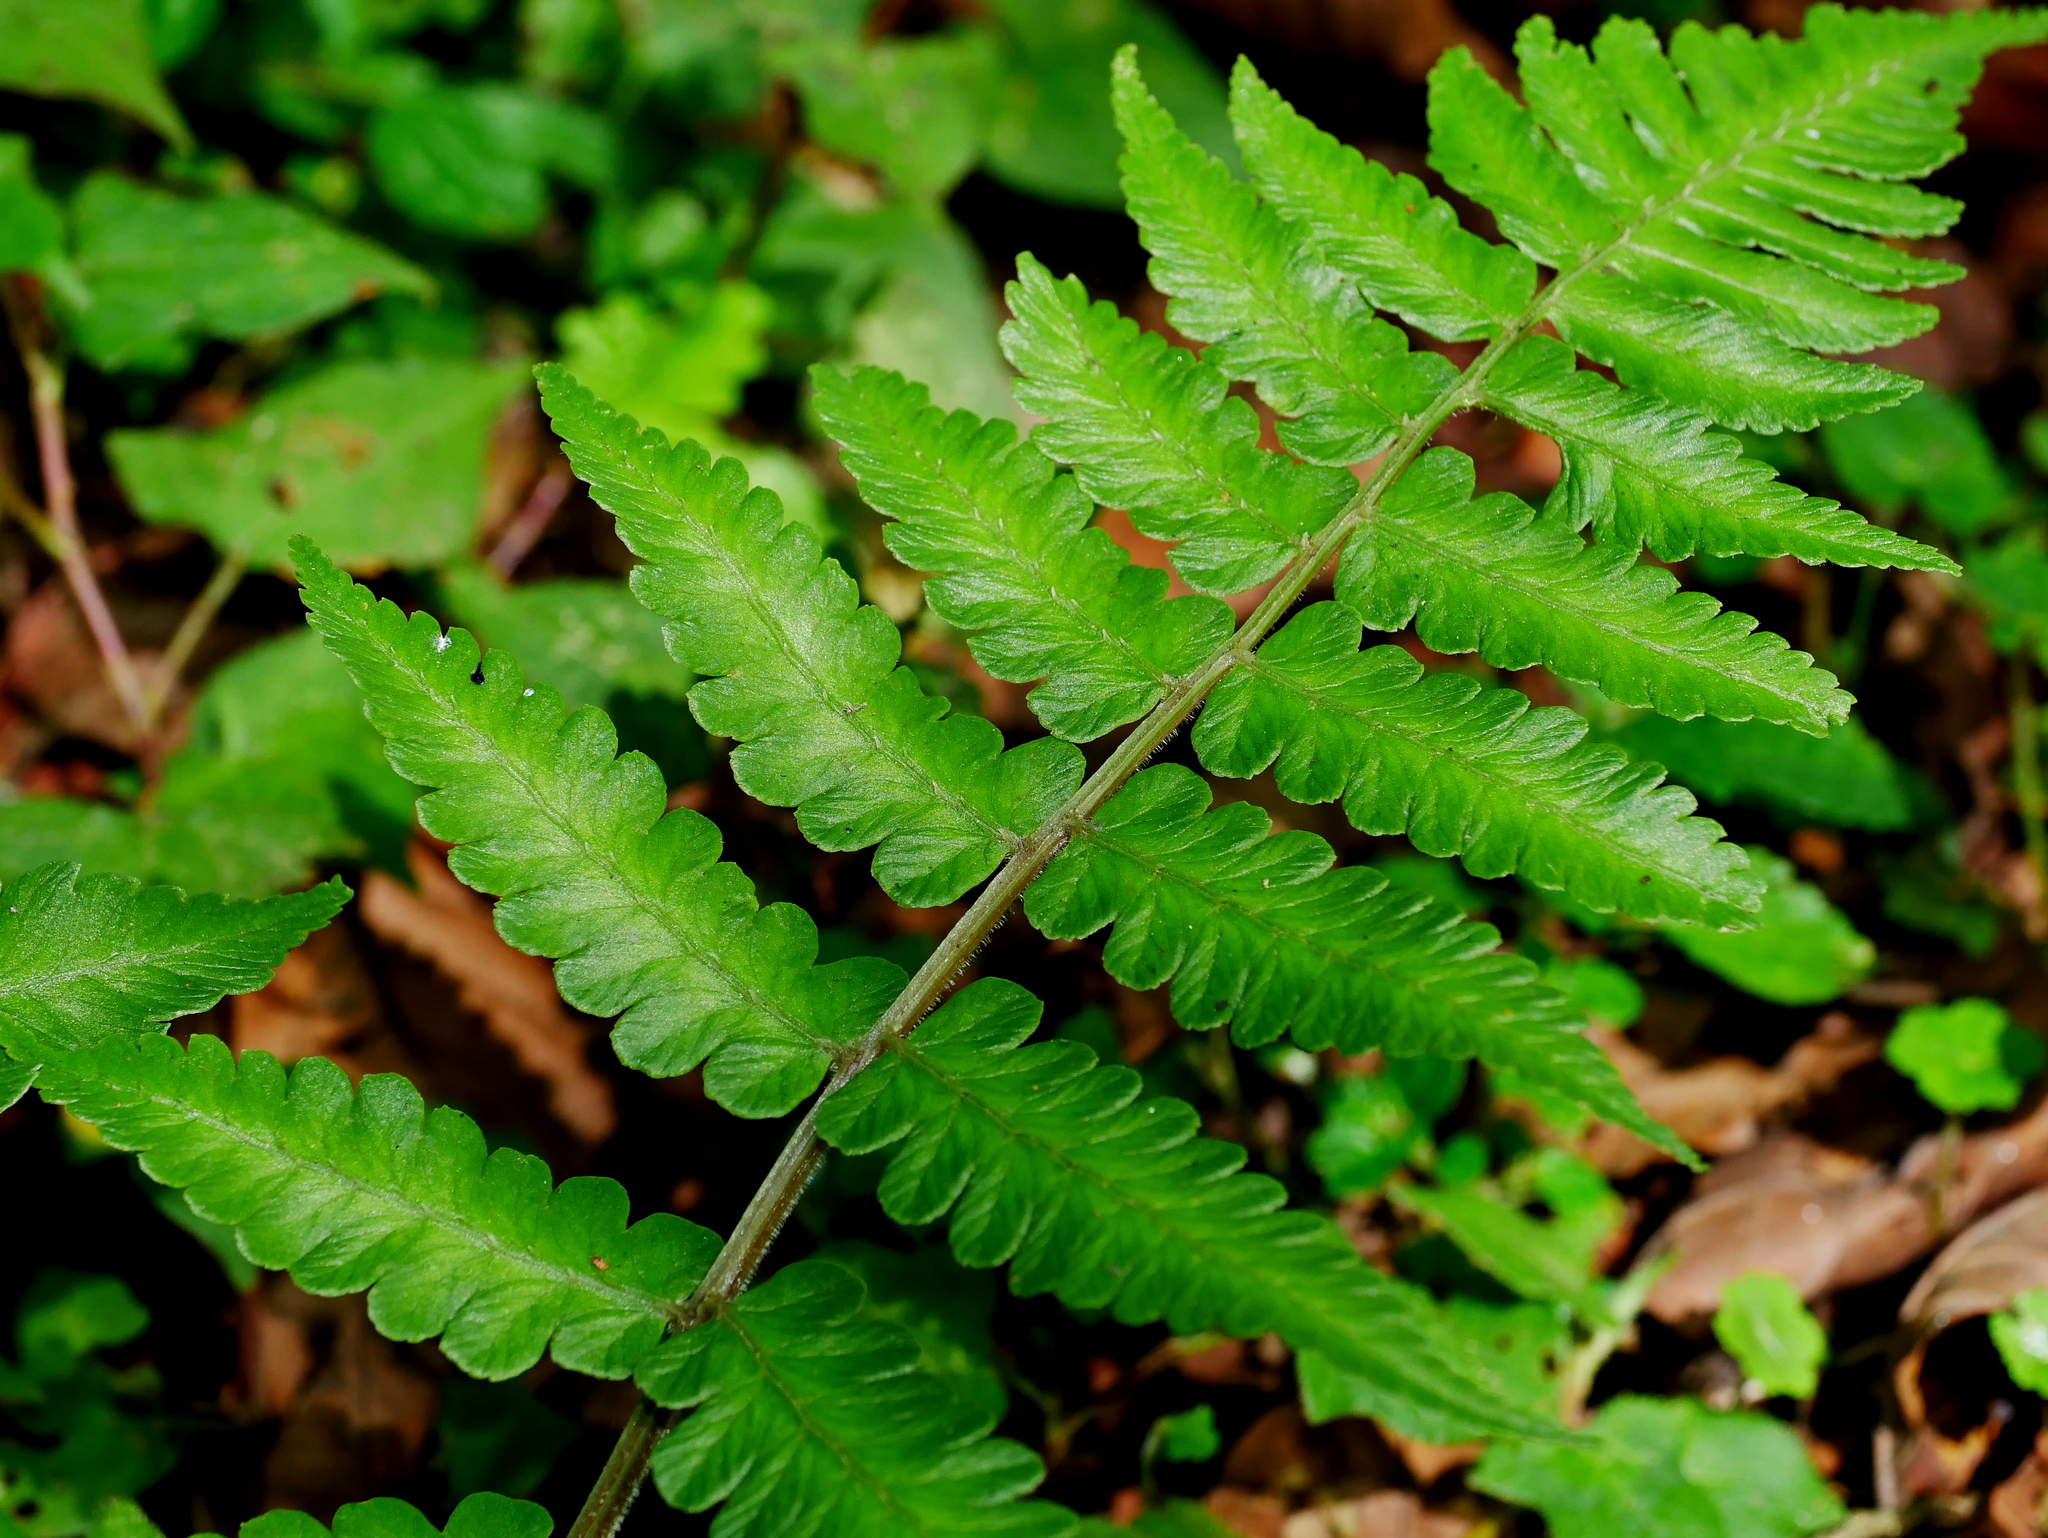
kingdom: Plantae
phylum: Tracheophyta
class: Polypodiopsida
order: Polypodiales
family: Athyriaceae
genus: Cornopteris
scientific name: Cornopteris decurrentialata
